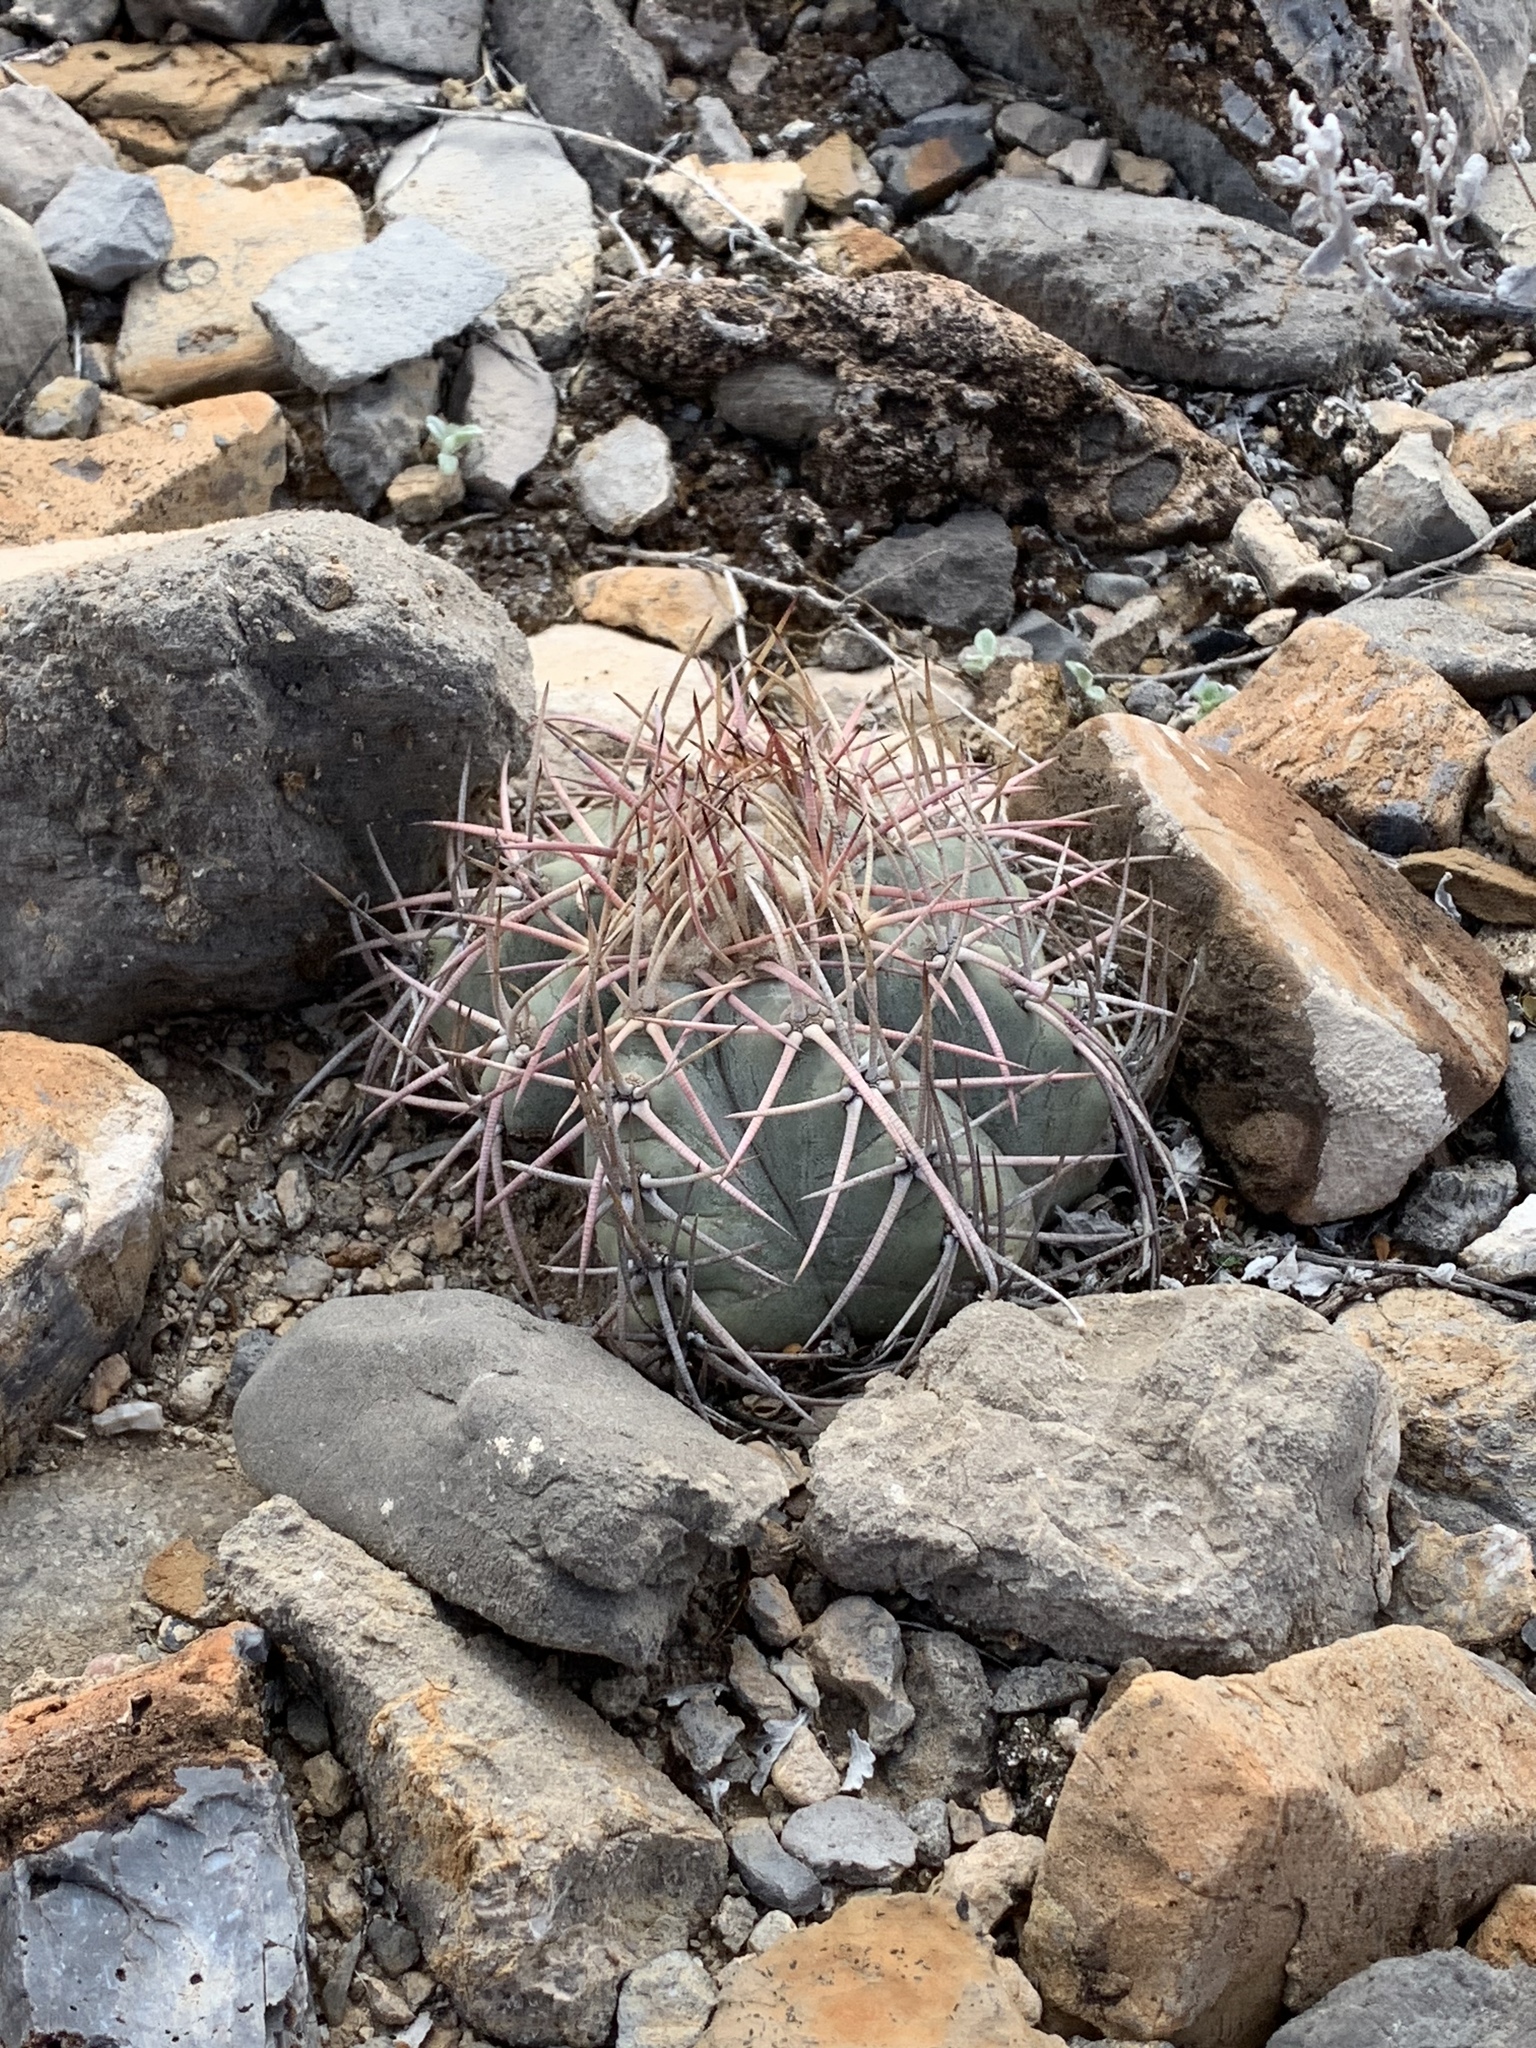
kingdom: Plantae
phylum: Tracheophyta
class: Magnoliopsida
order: Caryophyllales
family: Cactaceae
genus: Echinocactus
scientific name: Echinocactus horizonthalonius
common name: Devilshead
